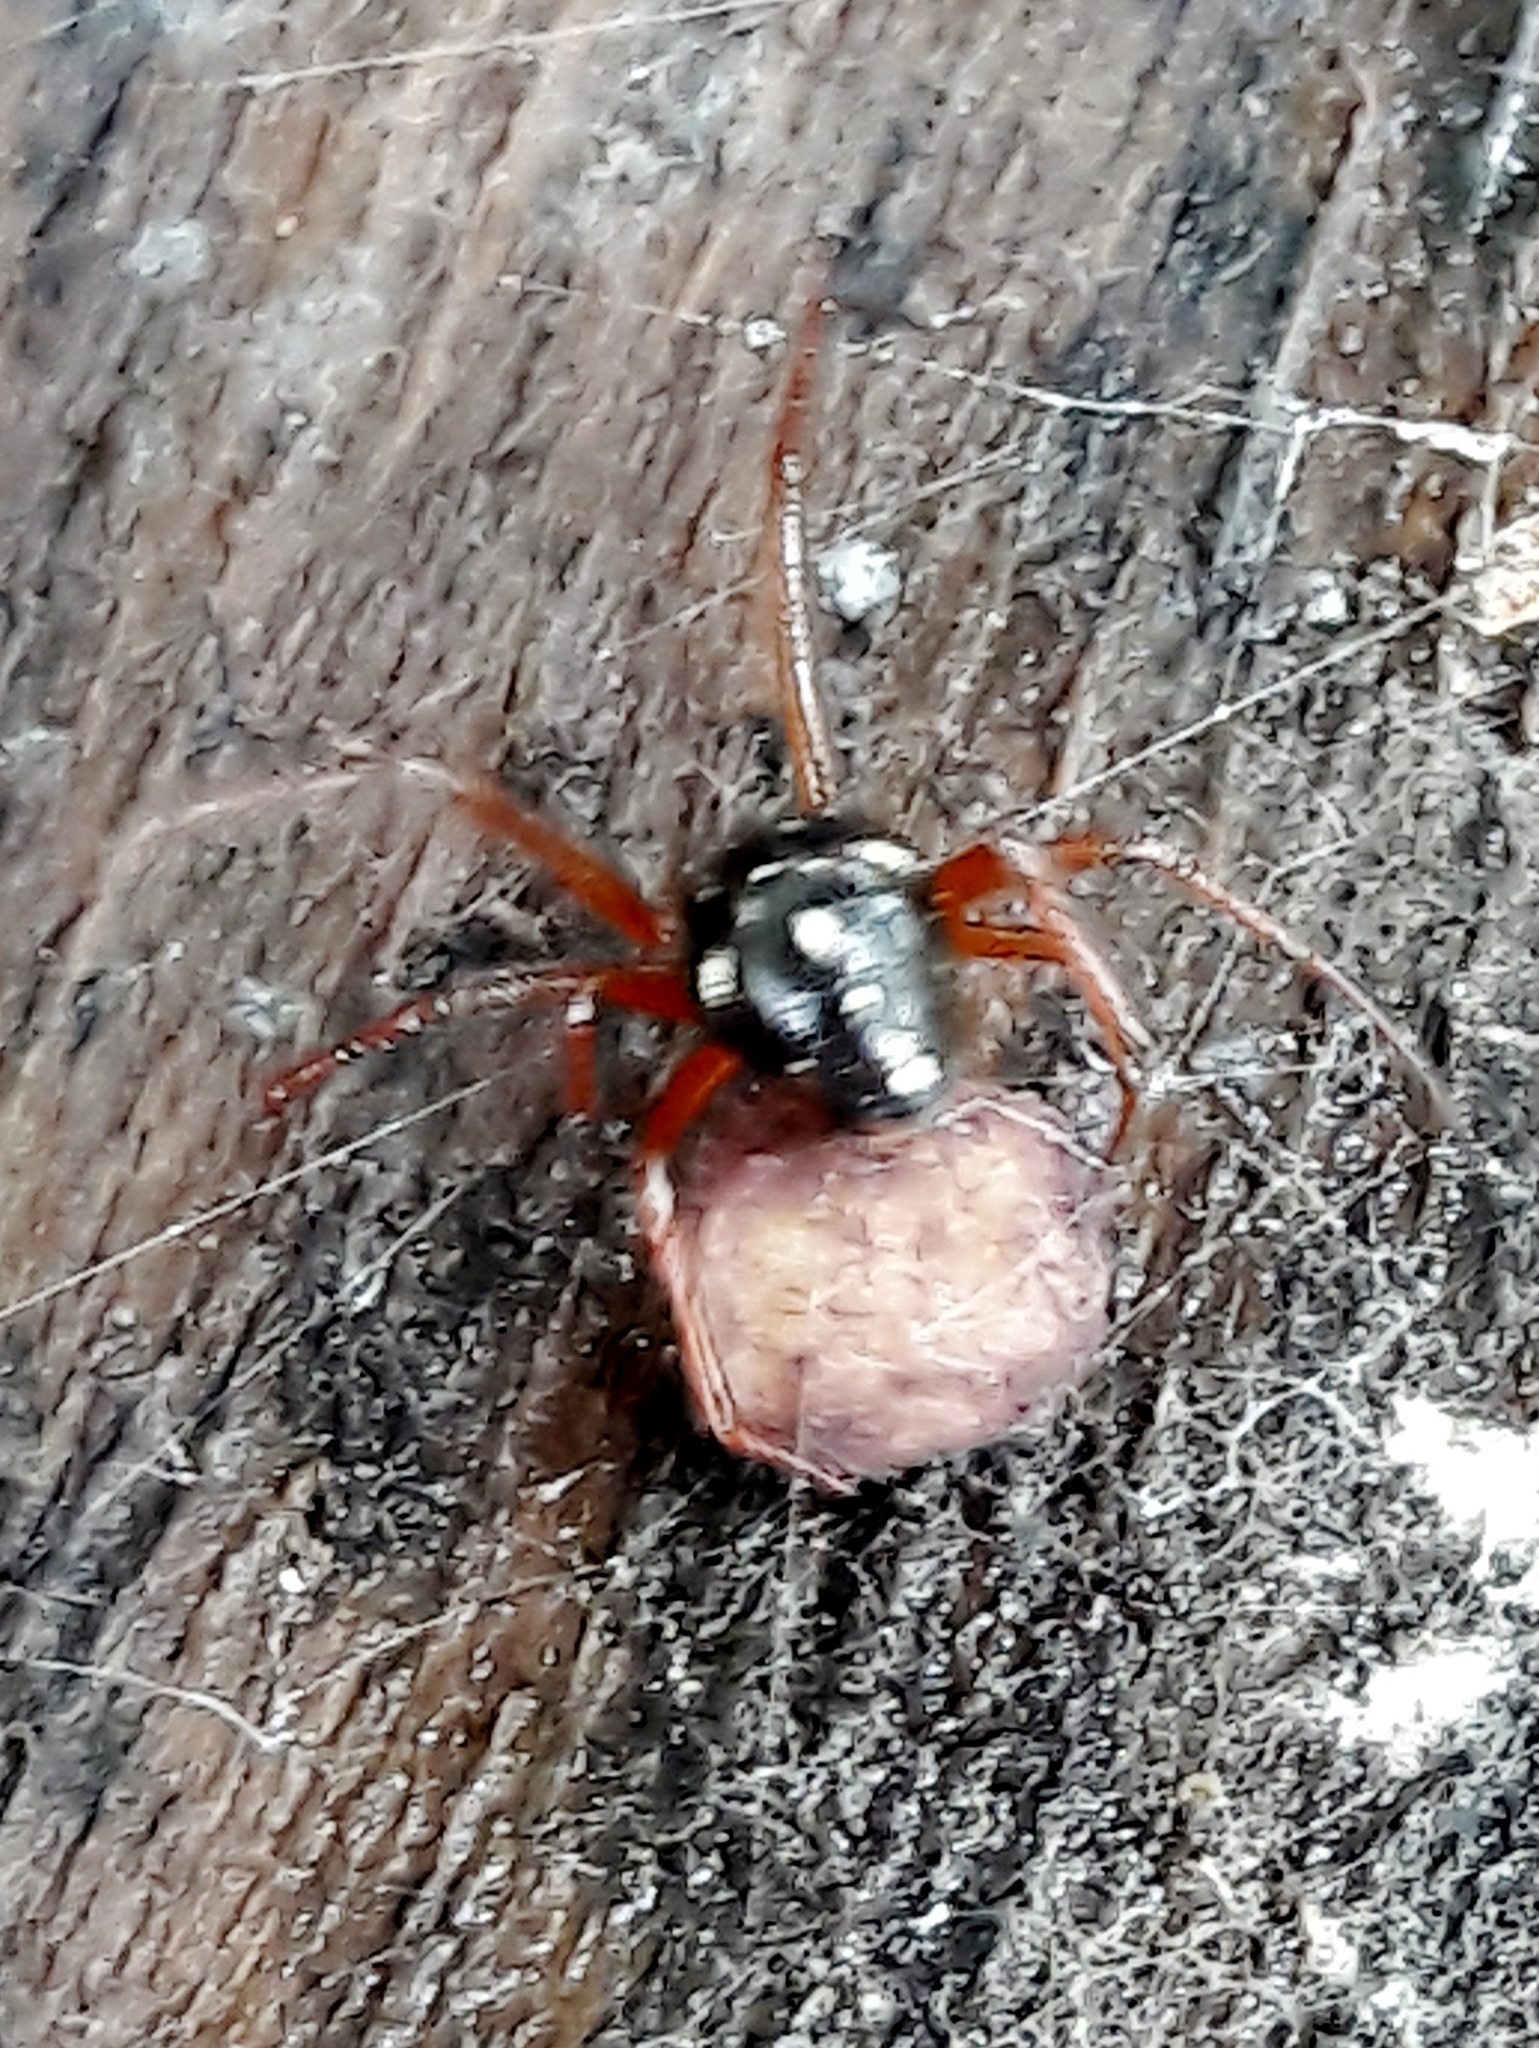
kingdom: Animalia
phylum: Arthropoda
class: Arachnida
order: Araneae
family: Theridiidae
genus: Nesticodes
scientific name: Nesticodes rufipes
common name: Cobweb spiders
